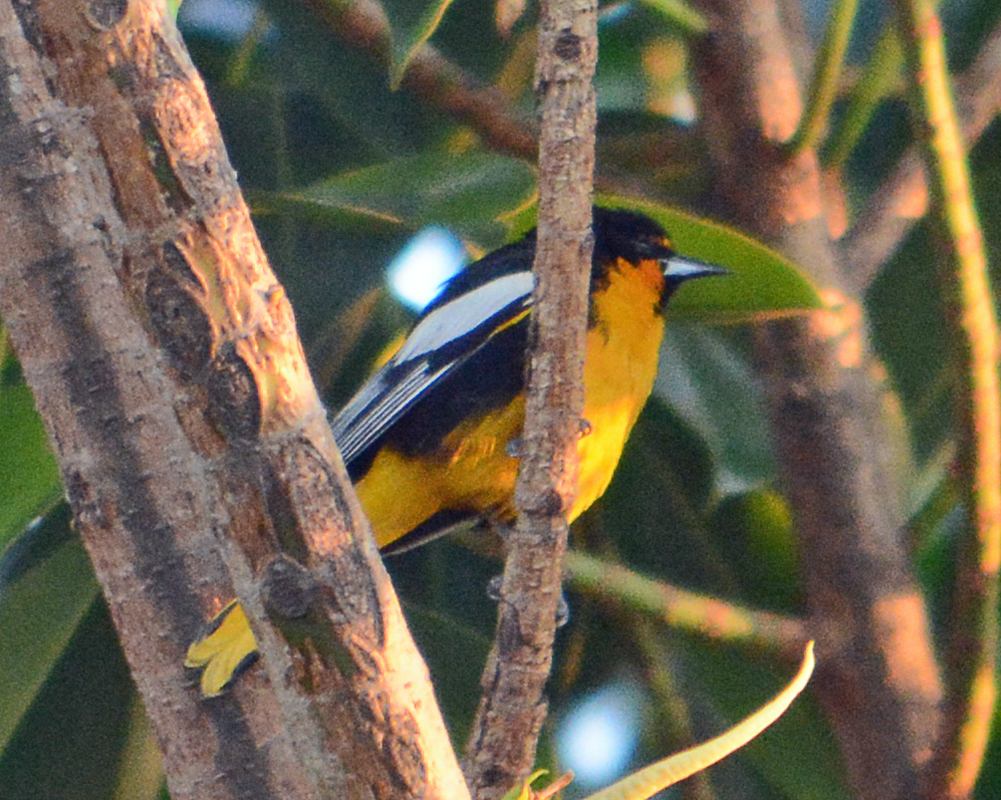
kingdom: Animalia
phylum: Chordata
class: Aves
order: Passeriformes
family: Icteridae
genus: Icterus
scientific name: Icterus abeillei
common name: Black-backed oriole
